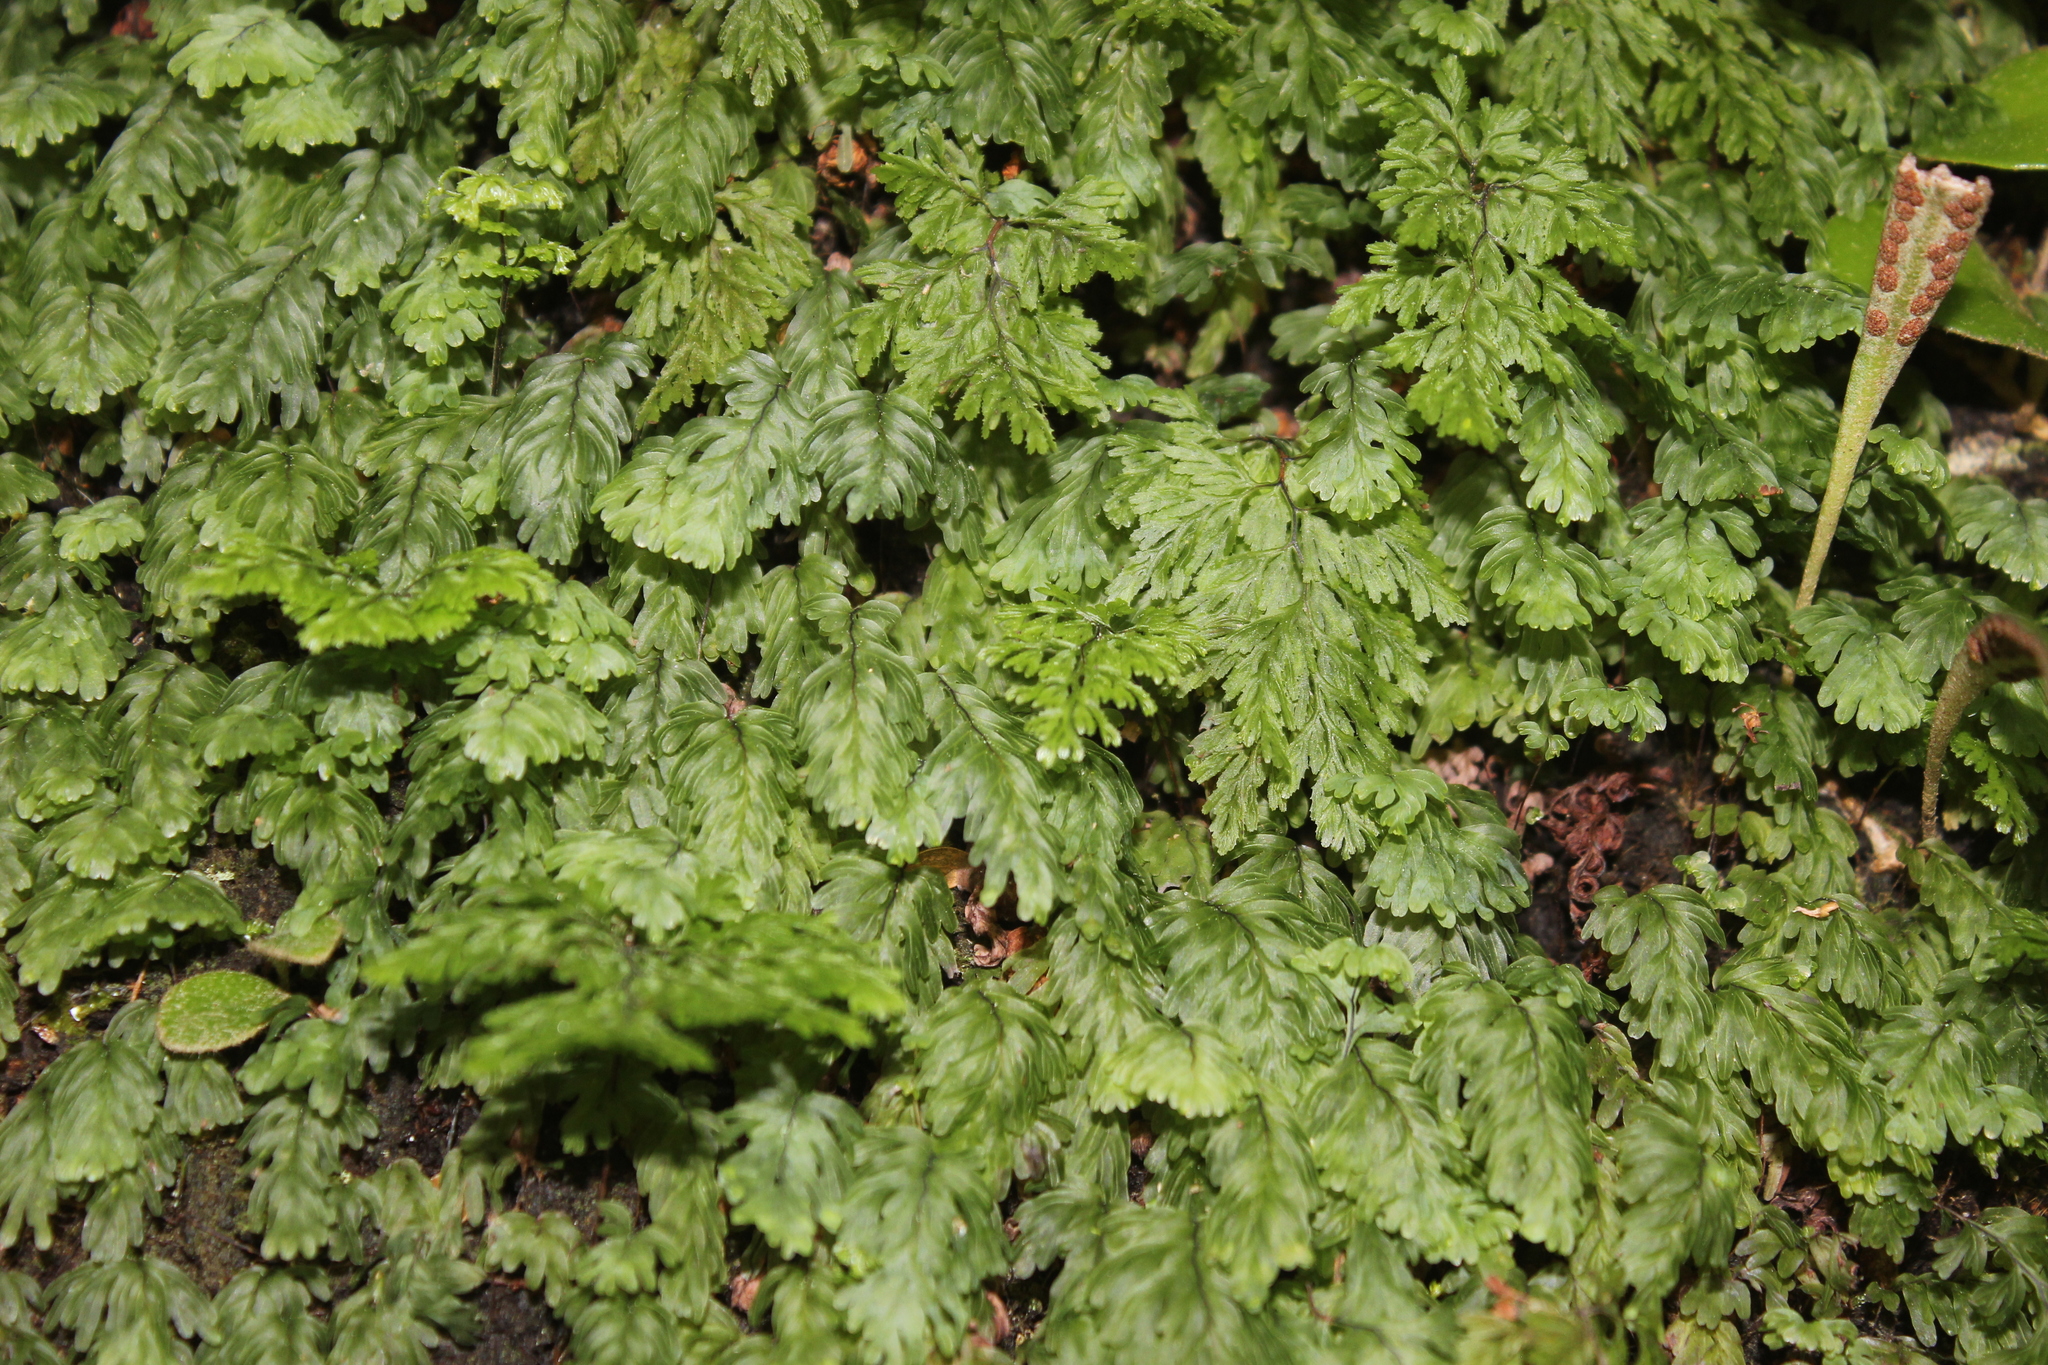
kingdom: Plantae
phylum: Tracheophyta
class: Polypodiopsida
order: Hymenophyllales
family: Hymenophyllaceae
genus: Hymenophyllum
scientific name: Hymenophyllum rarum
